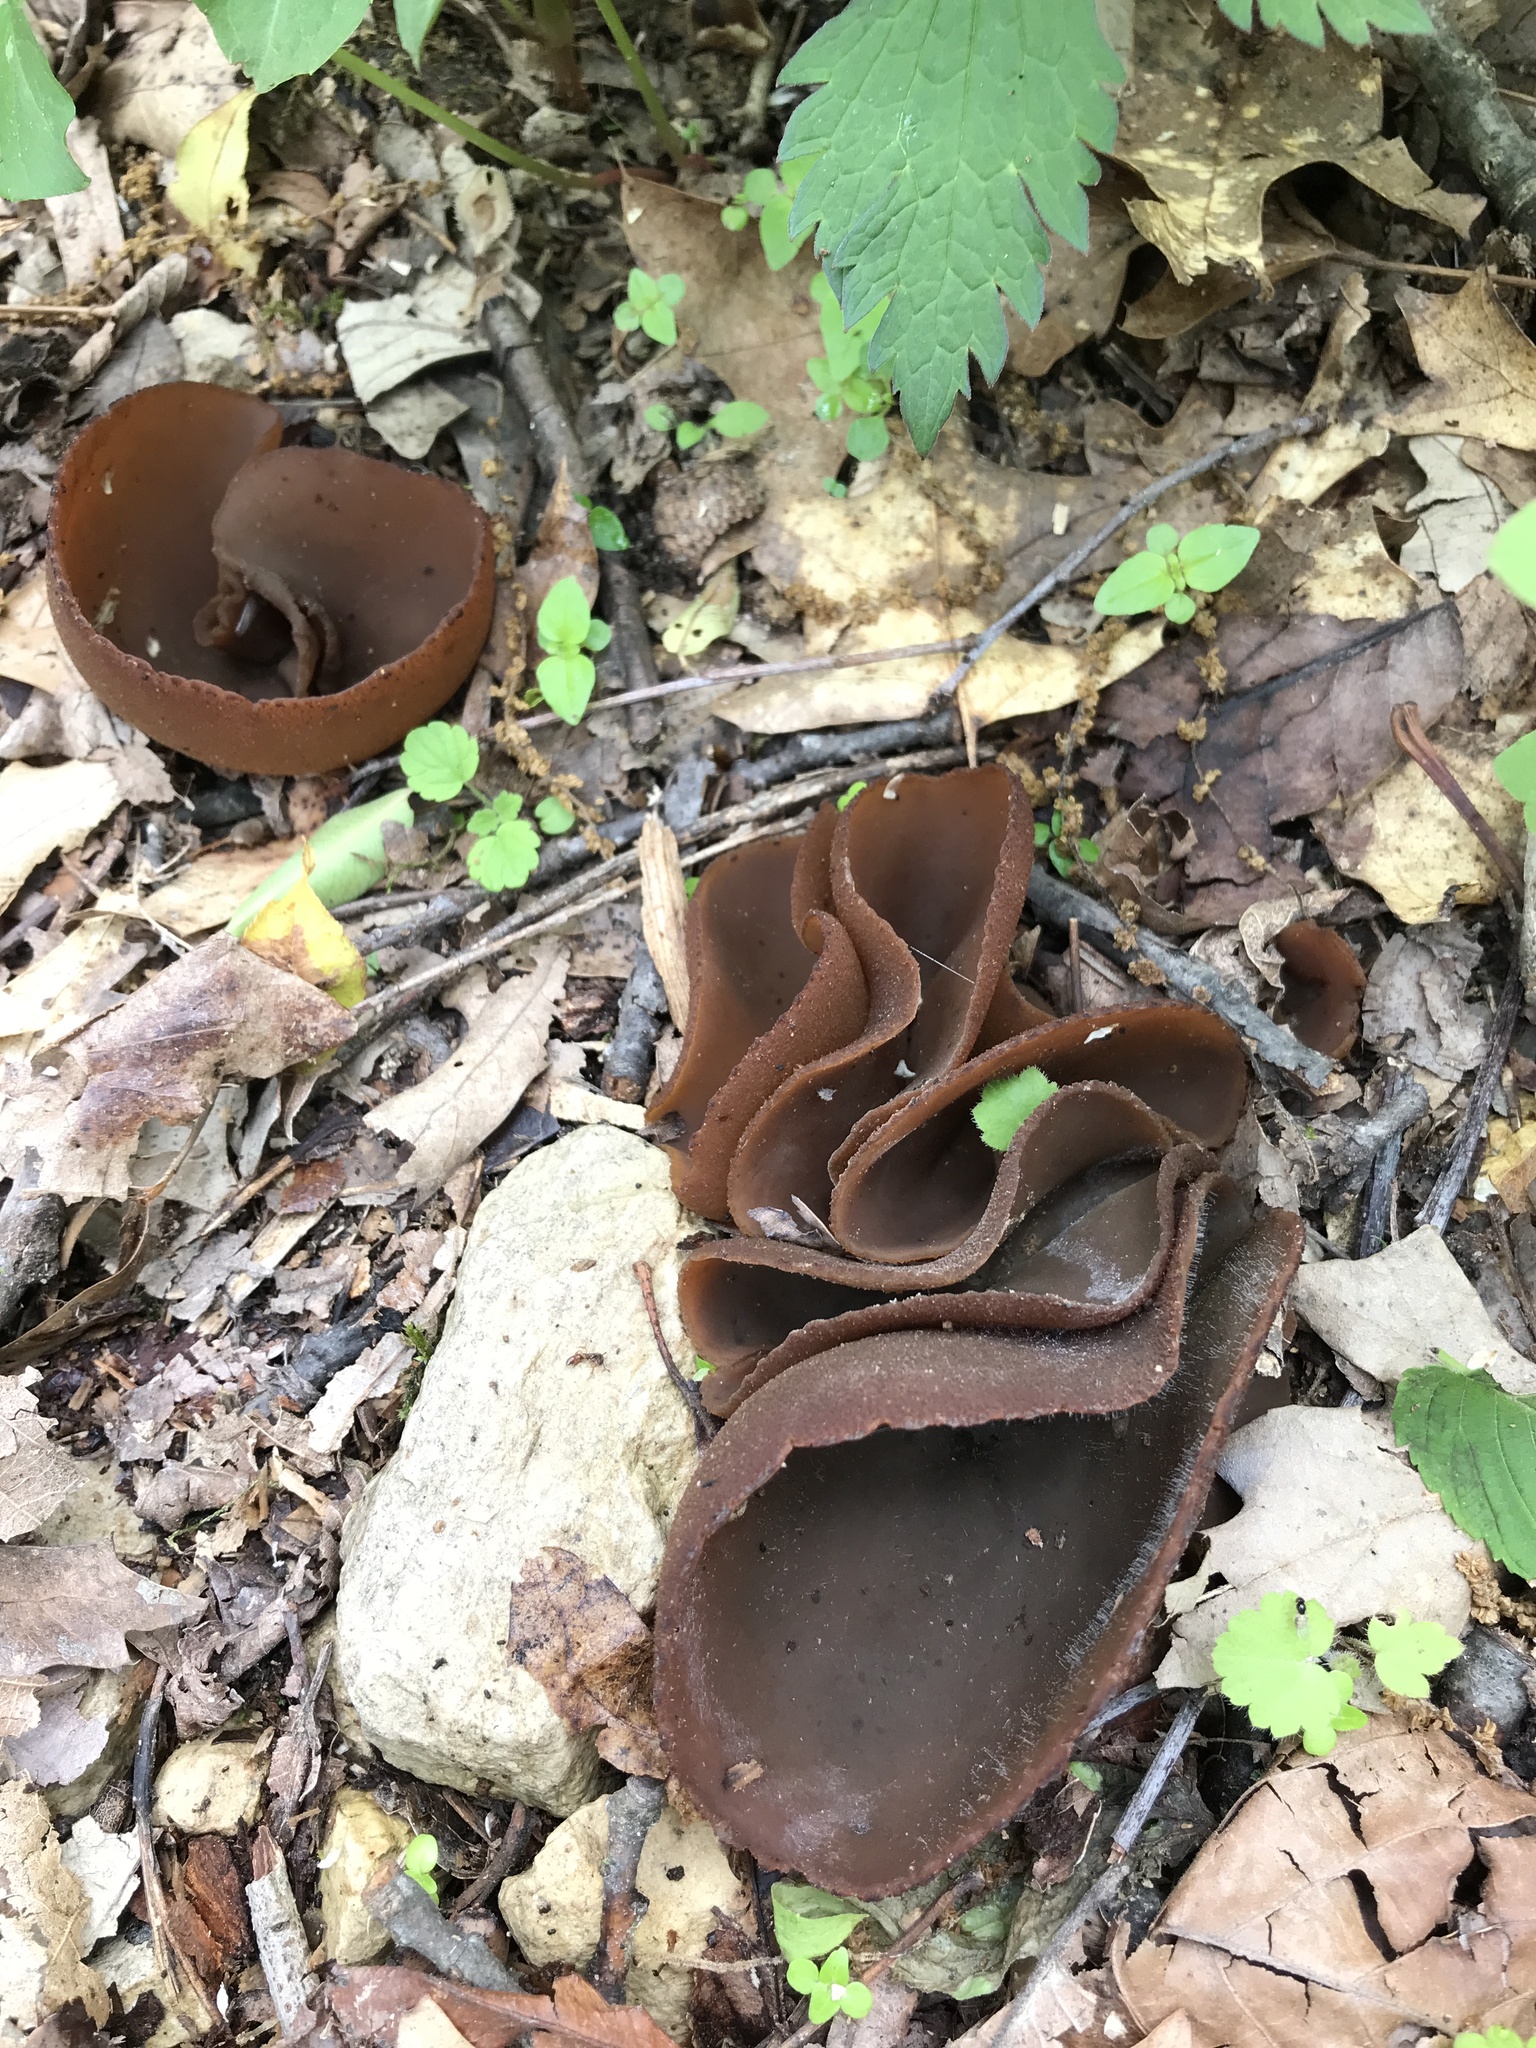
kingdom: Fungi
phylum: Ascomycota
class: Pezizomycetes
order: Pezizales
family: Pezizaceae
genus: Phylloscypha
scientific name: Phylloscypha phyllogena
